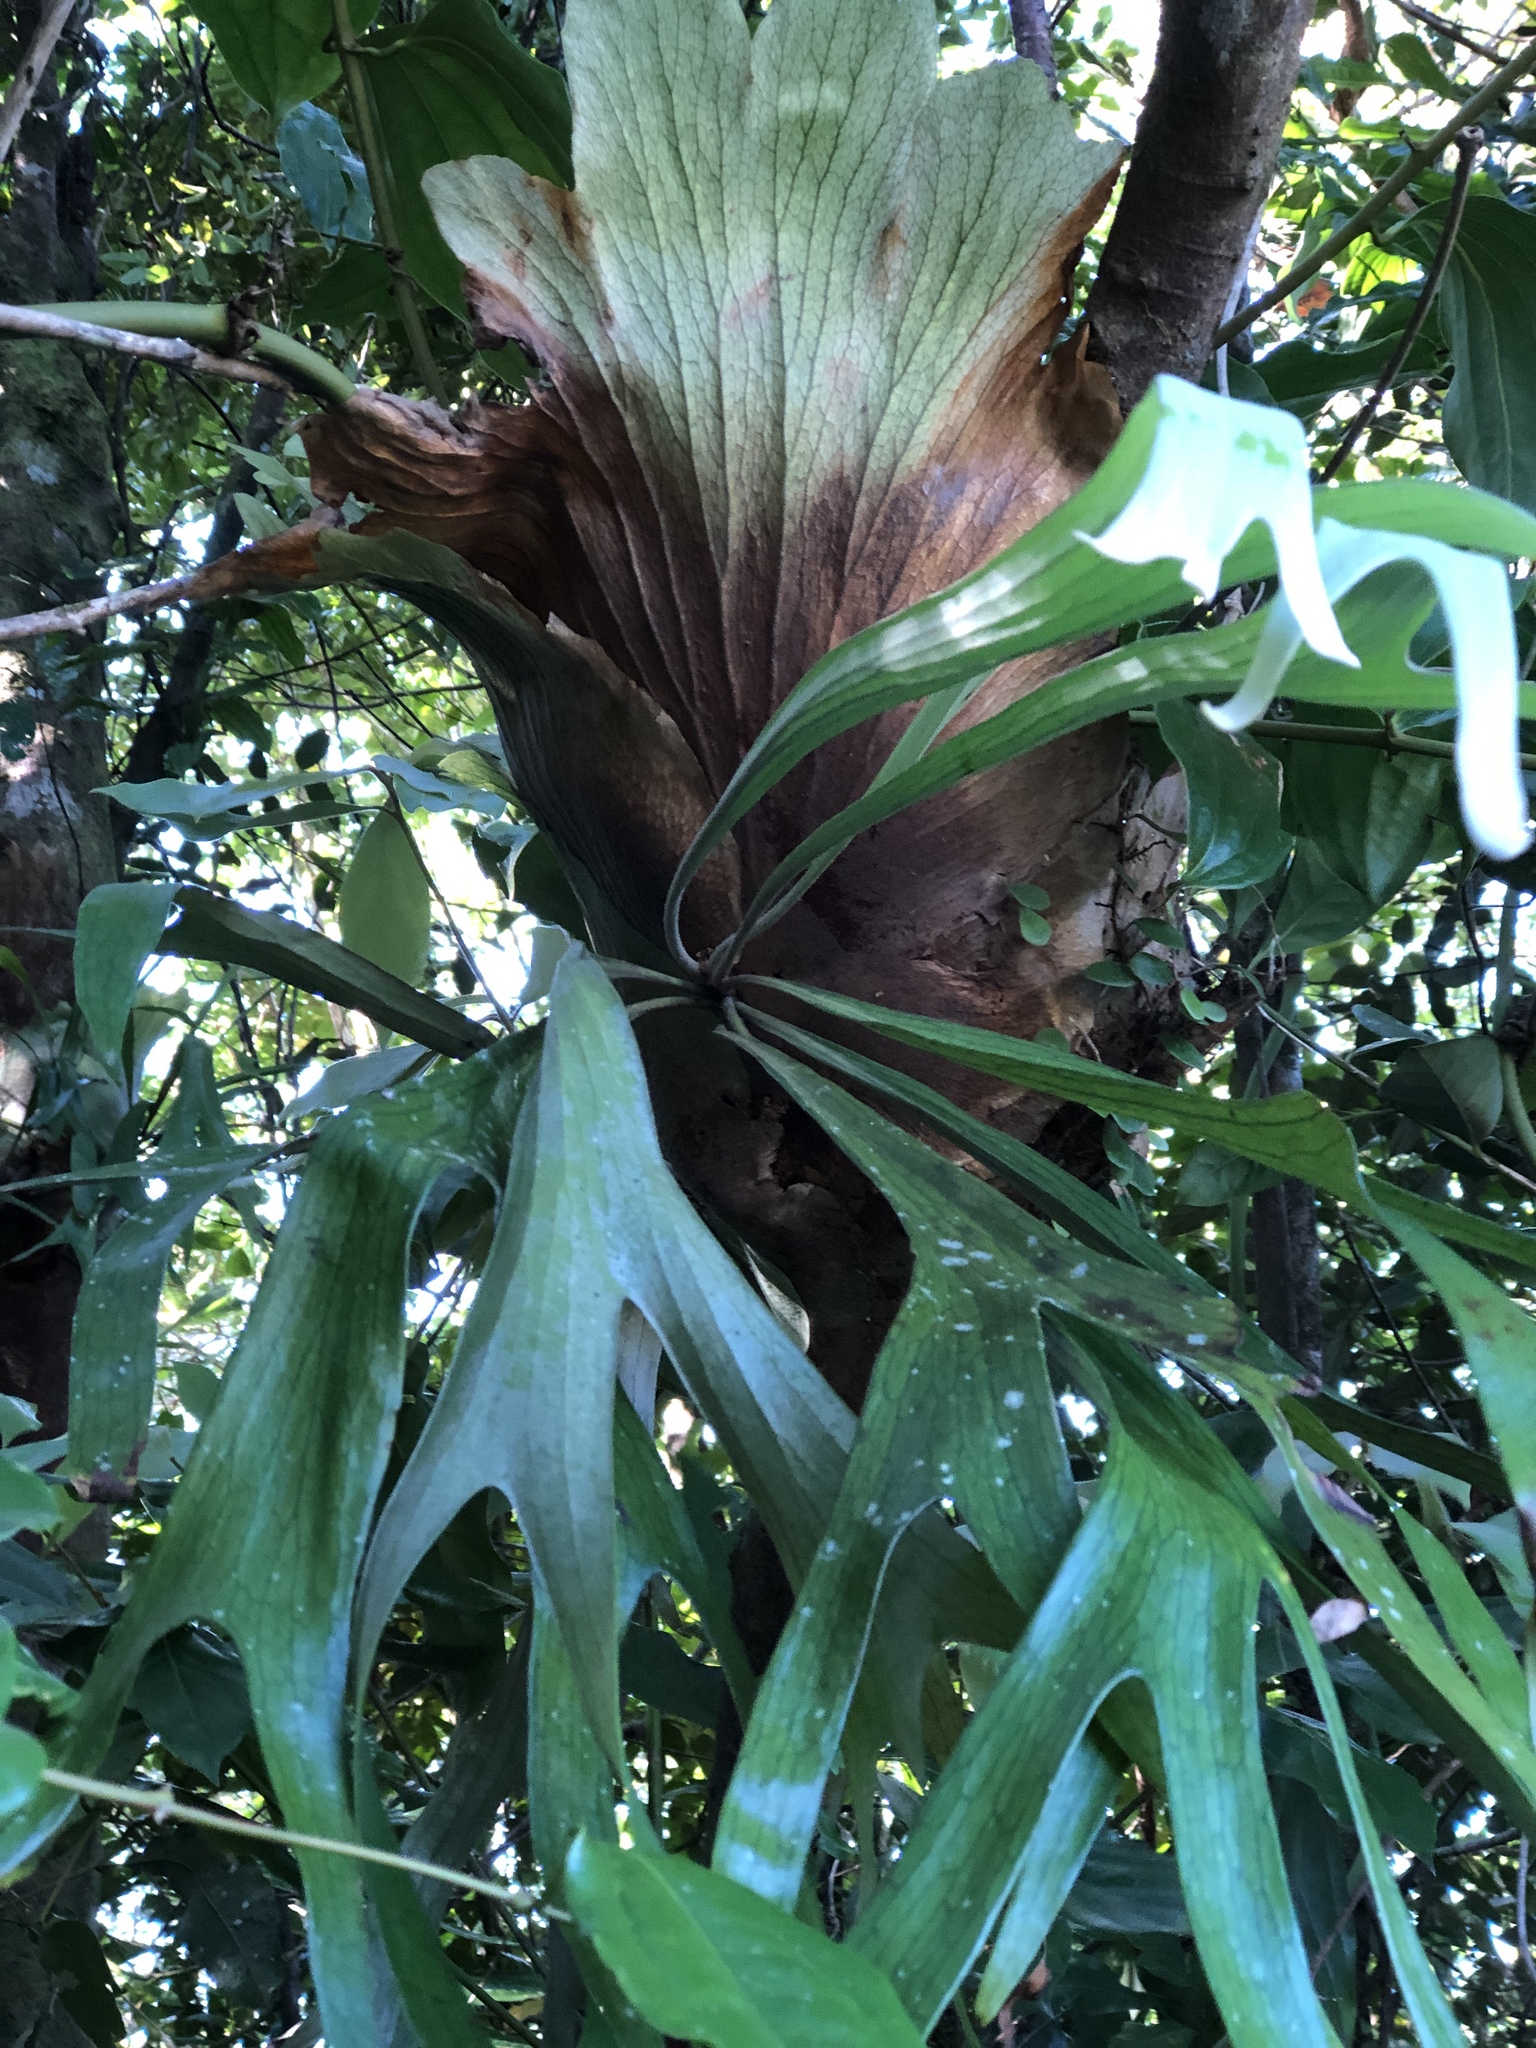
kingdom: Plantae
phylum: Tracheophyta
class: Polypodiopsida
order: Polypodiales
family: Polypodiaceae
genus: Platycerium
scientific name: Platycerium bifurcatum
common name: Elkhorn fern
